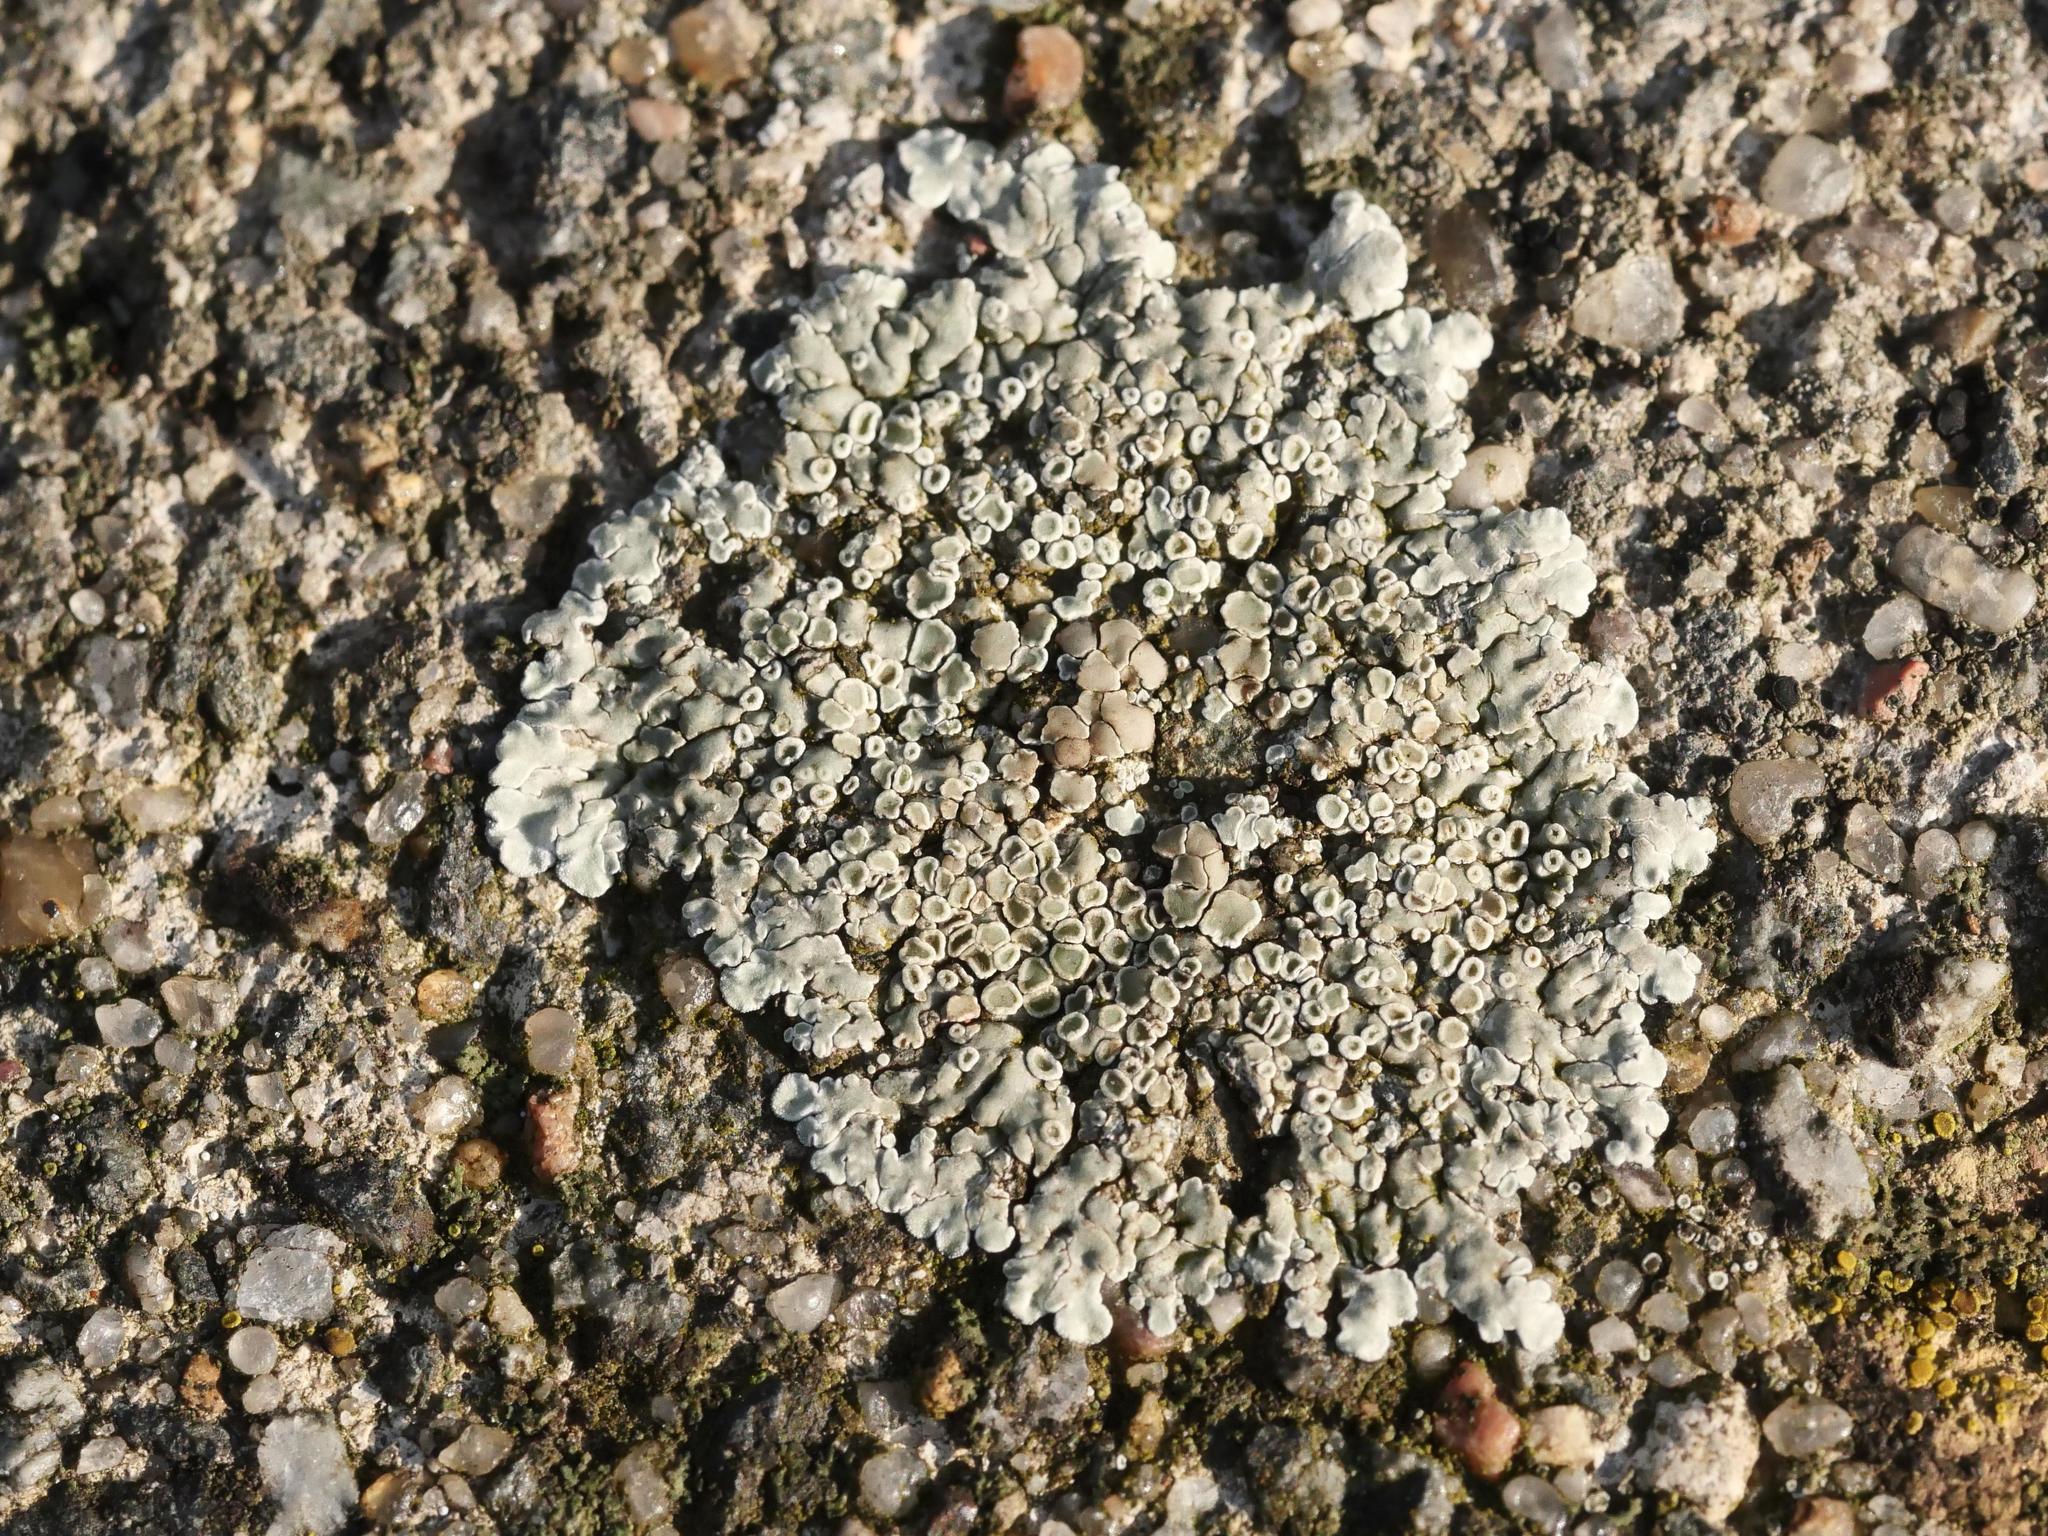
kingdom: Fungi
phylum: Ascomycota
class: Lecanoromycetes
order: Lecanorales
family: Lecanoraceae
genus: Protoparmeliopsis
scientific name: Protoparmeliopsis muralis
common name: Stonewall rim lichen
